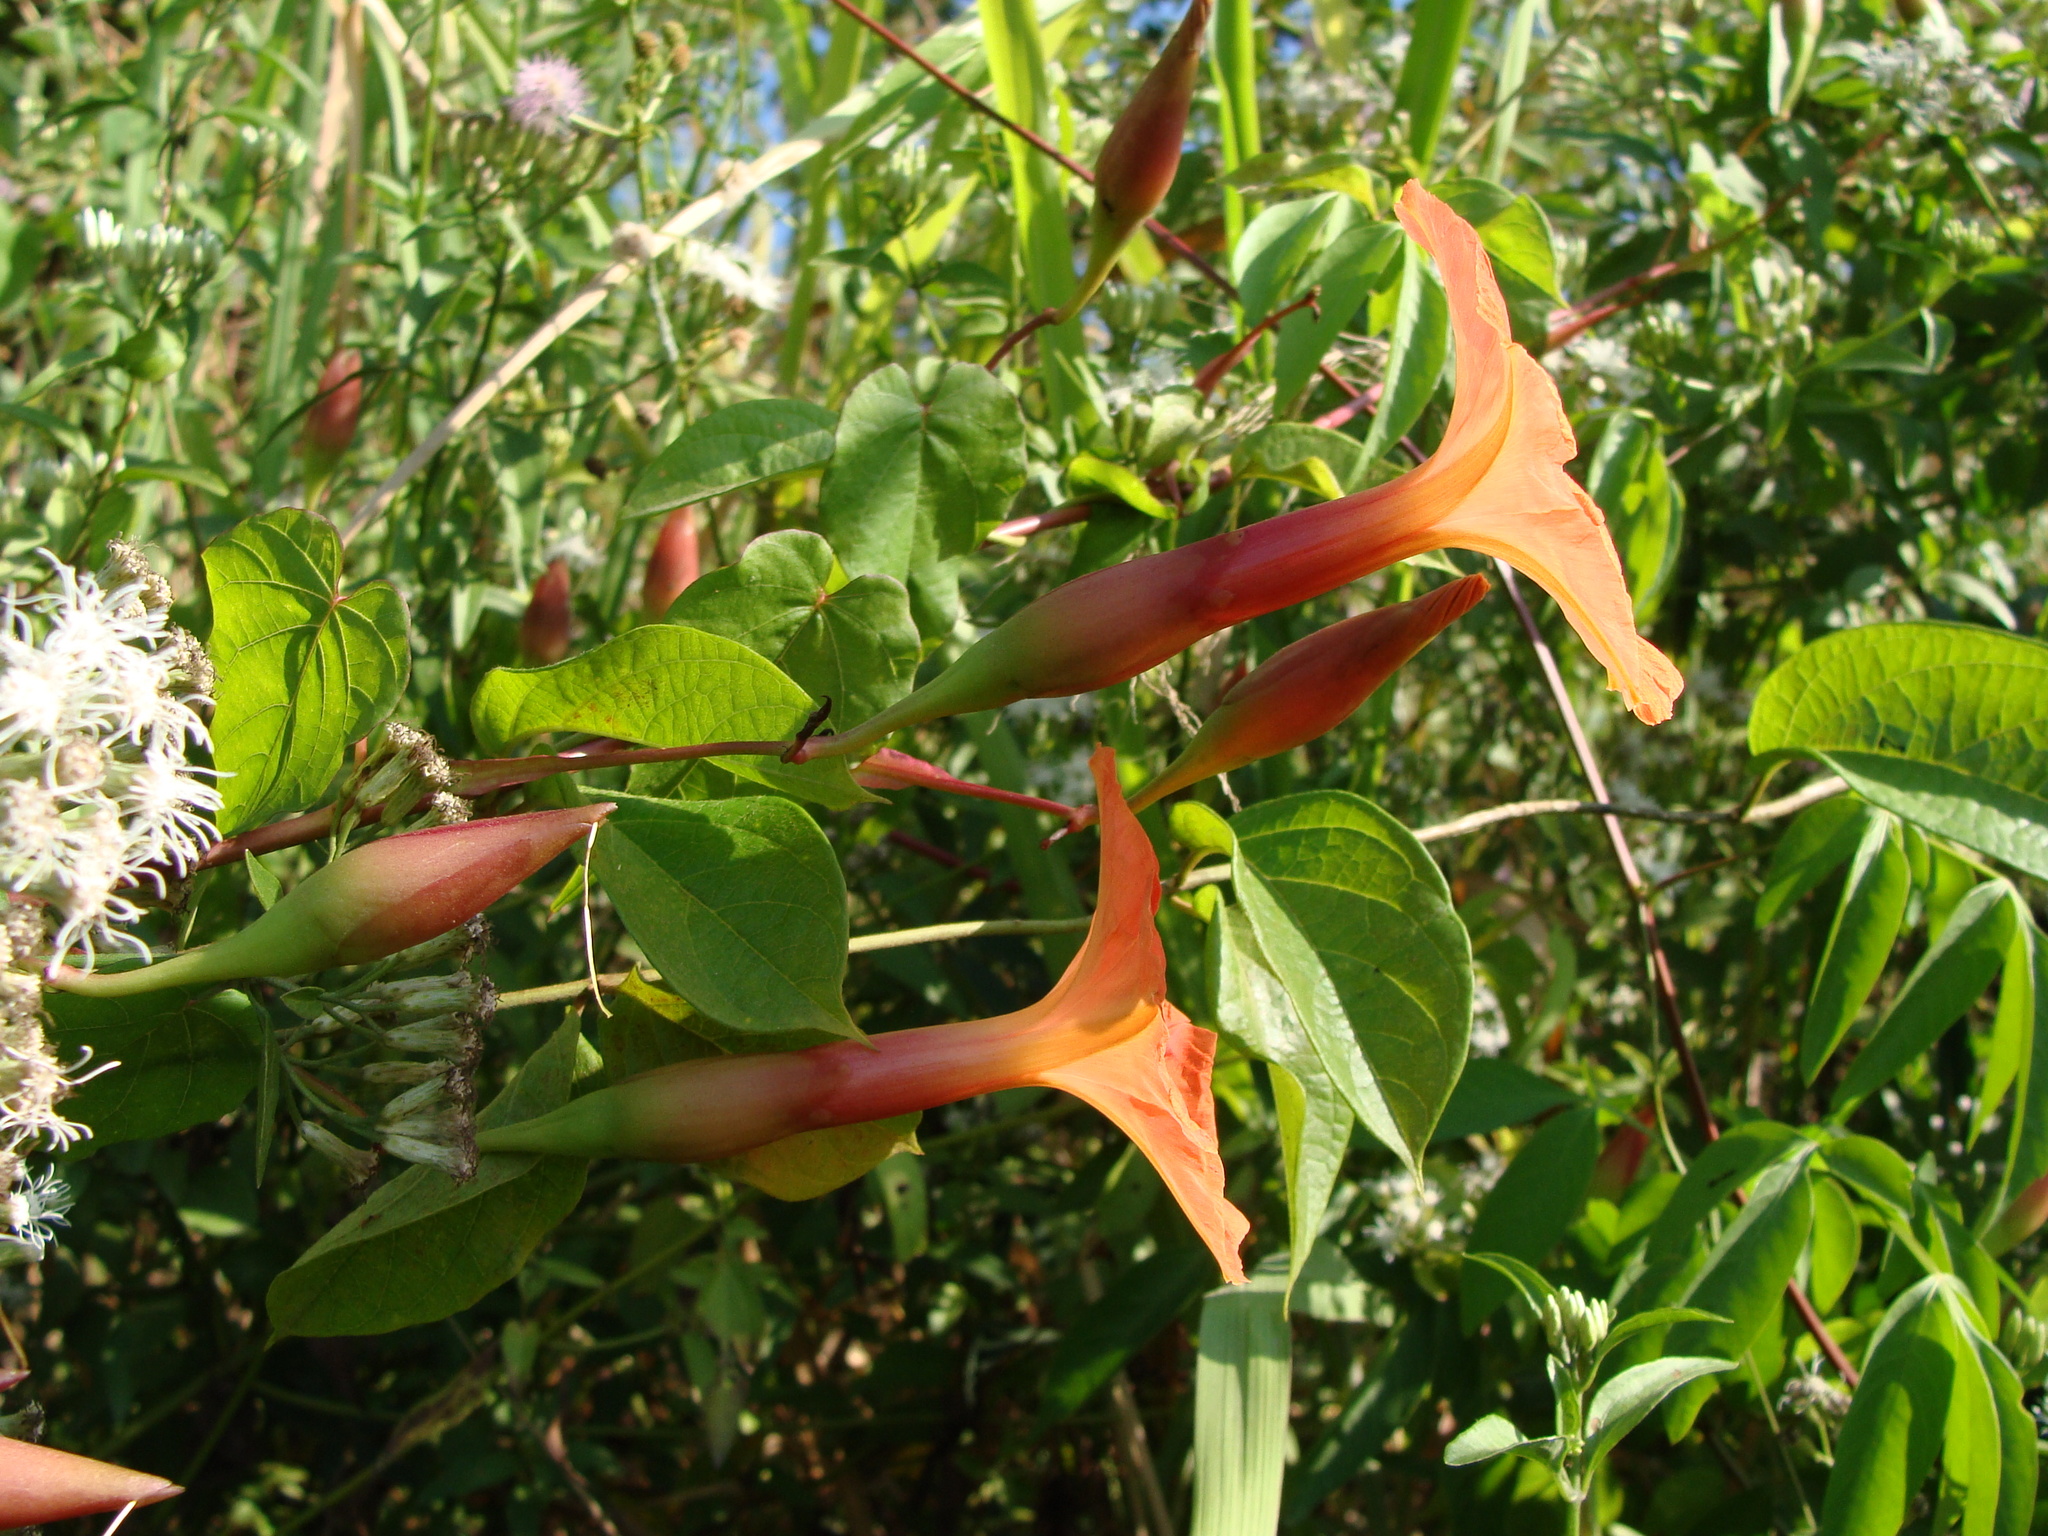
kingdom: Plantae
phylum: Tracheophyta
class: Magnoliopsida
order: Solanales
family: Convolvulaceae
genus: Operculina
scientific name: Operculina pteripes
